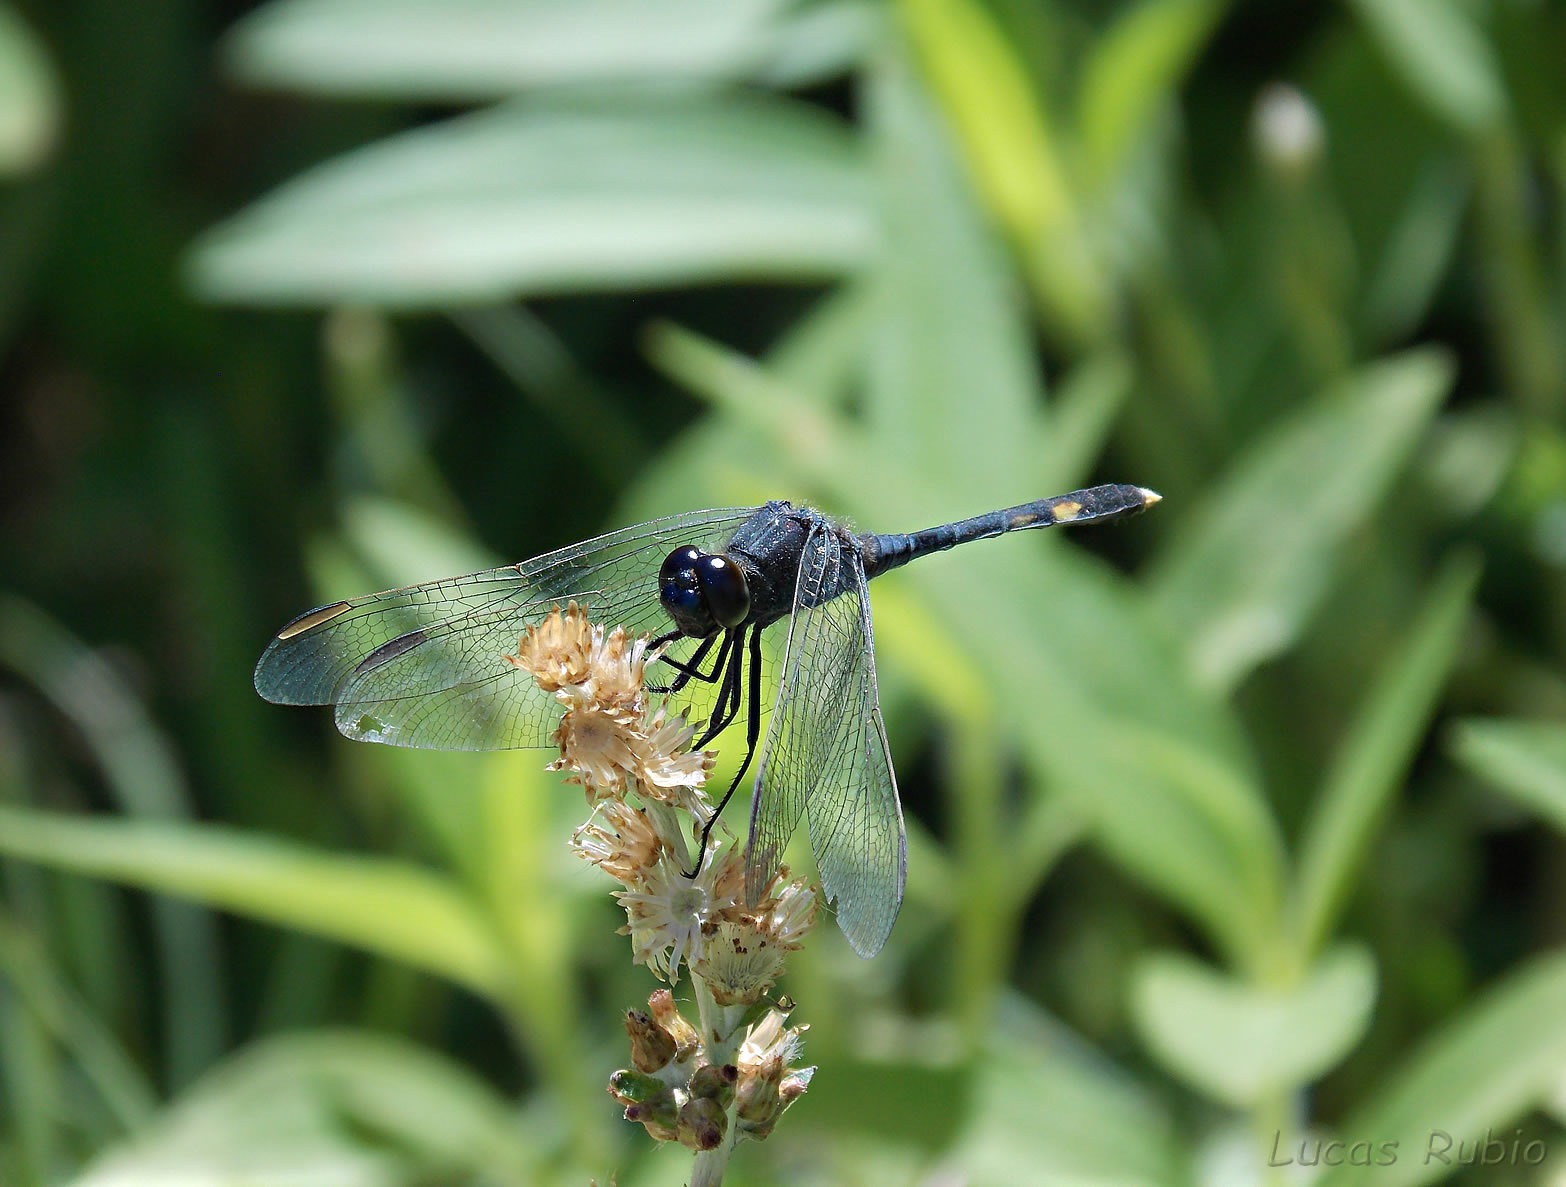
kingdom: Animalia
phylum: Arthropoda
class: Insecta
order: Odonata
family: Libellulidae
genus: Erythrodiplax
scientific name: Erythrodiplax nigricans
